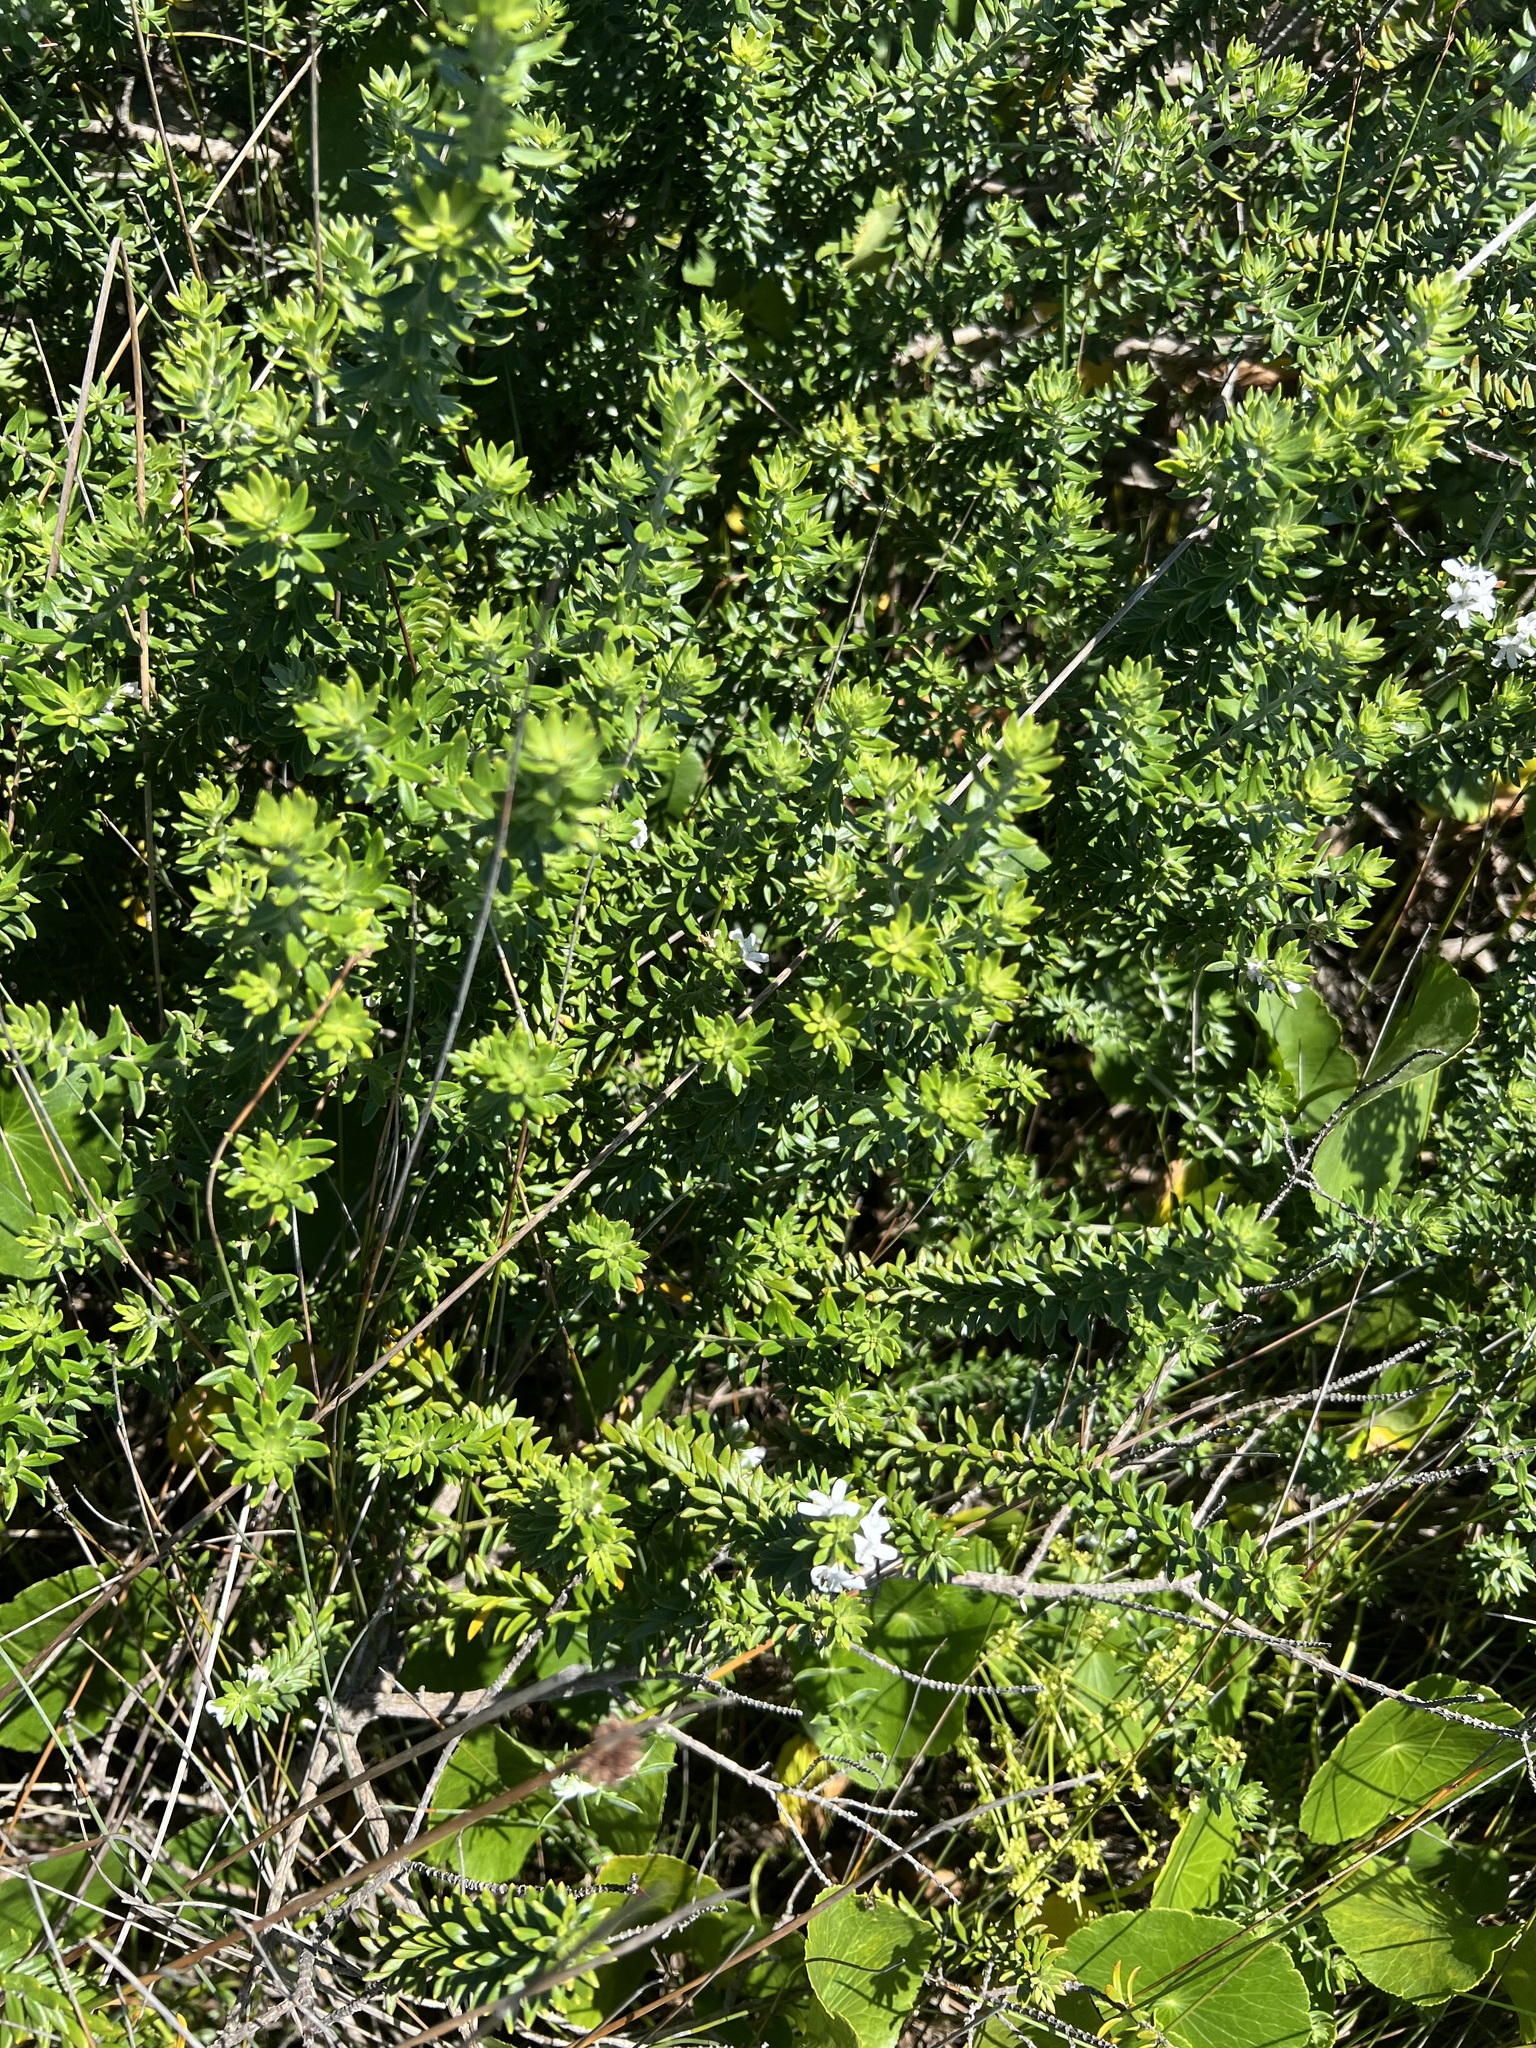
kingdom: Plantae
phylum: Tracheophyta
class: Magnoliopsida
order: Lamiales
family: Lamiaceae
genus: Westringia
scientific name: Westringia fruticosa
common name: Coastal-rosemary
